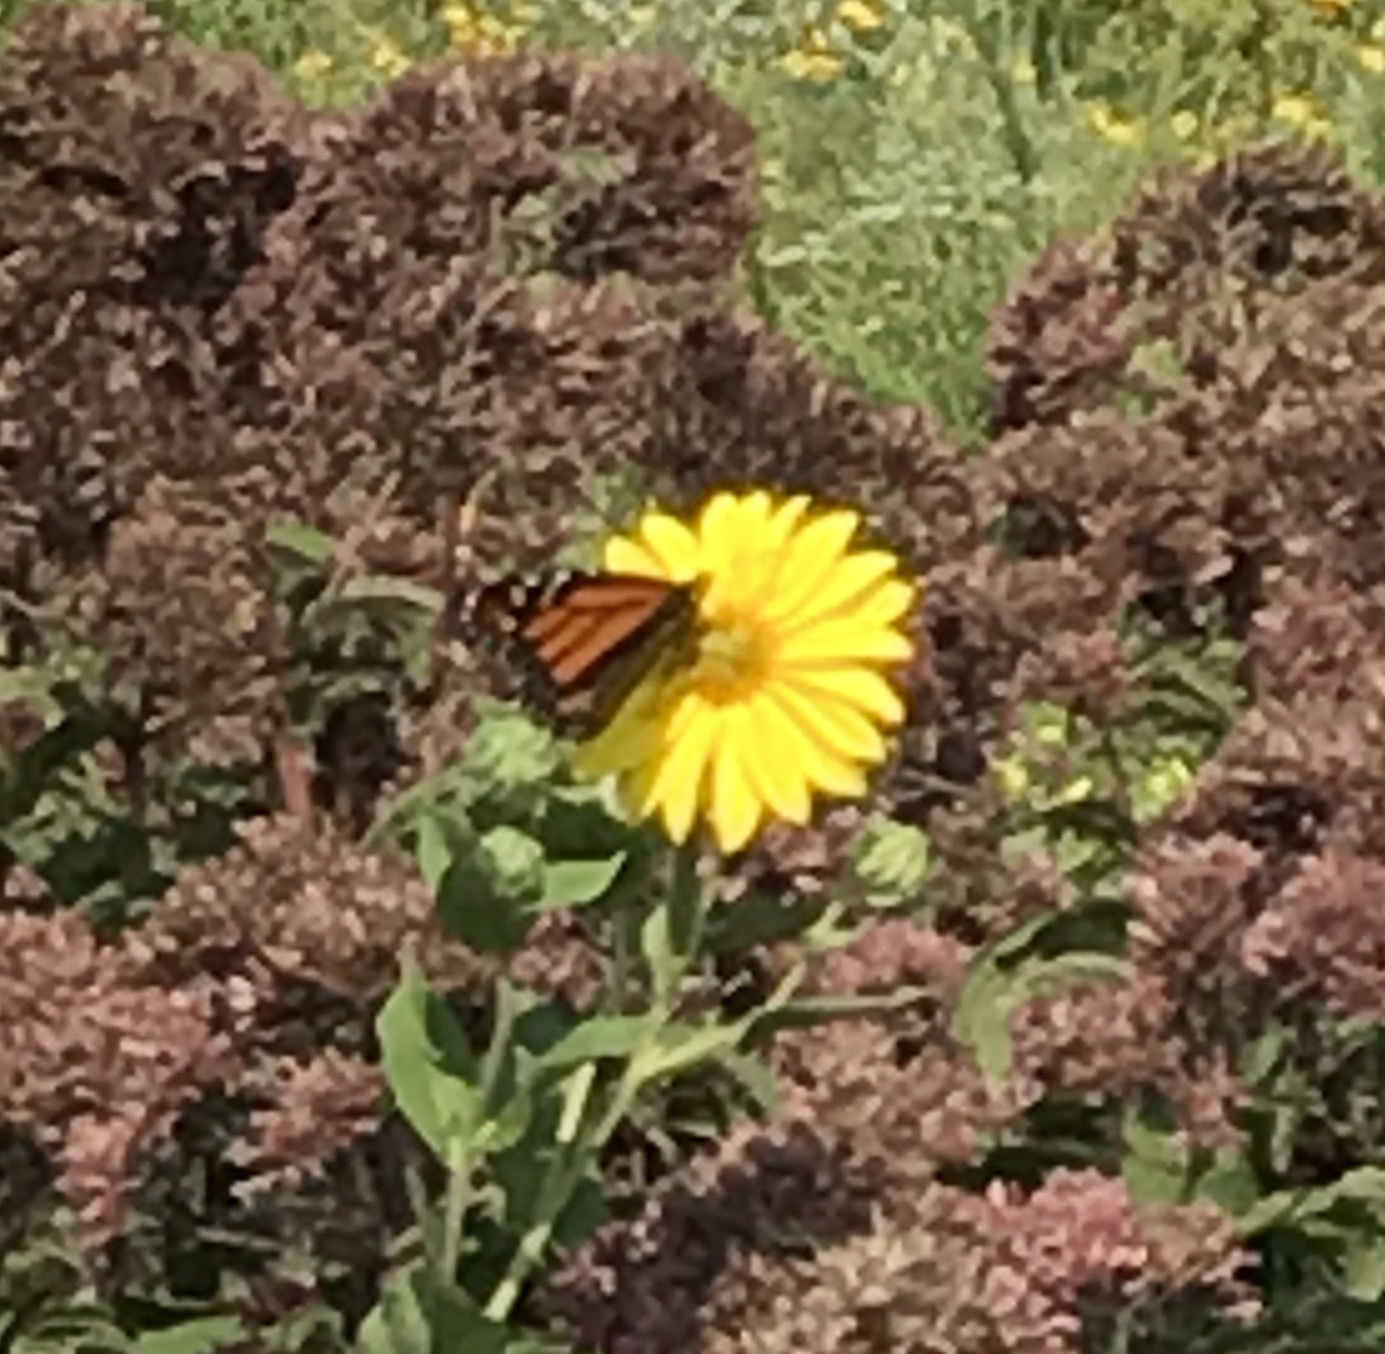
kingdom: Animalia
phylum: Arthropoda
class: Insecta
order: Lepidoptera
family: Nymphalidae
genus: Danaus
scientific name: Danaus plexippus
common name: Monarch
